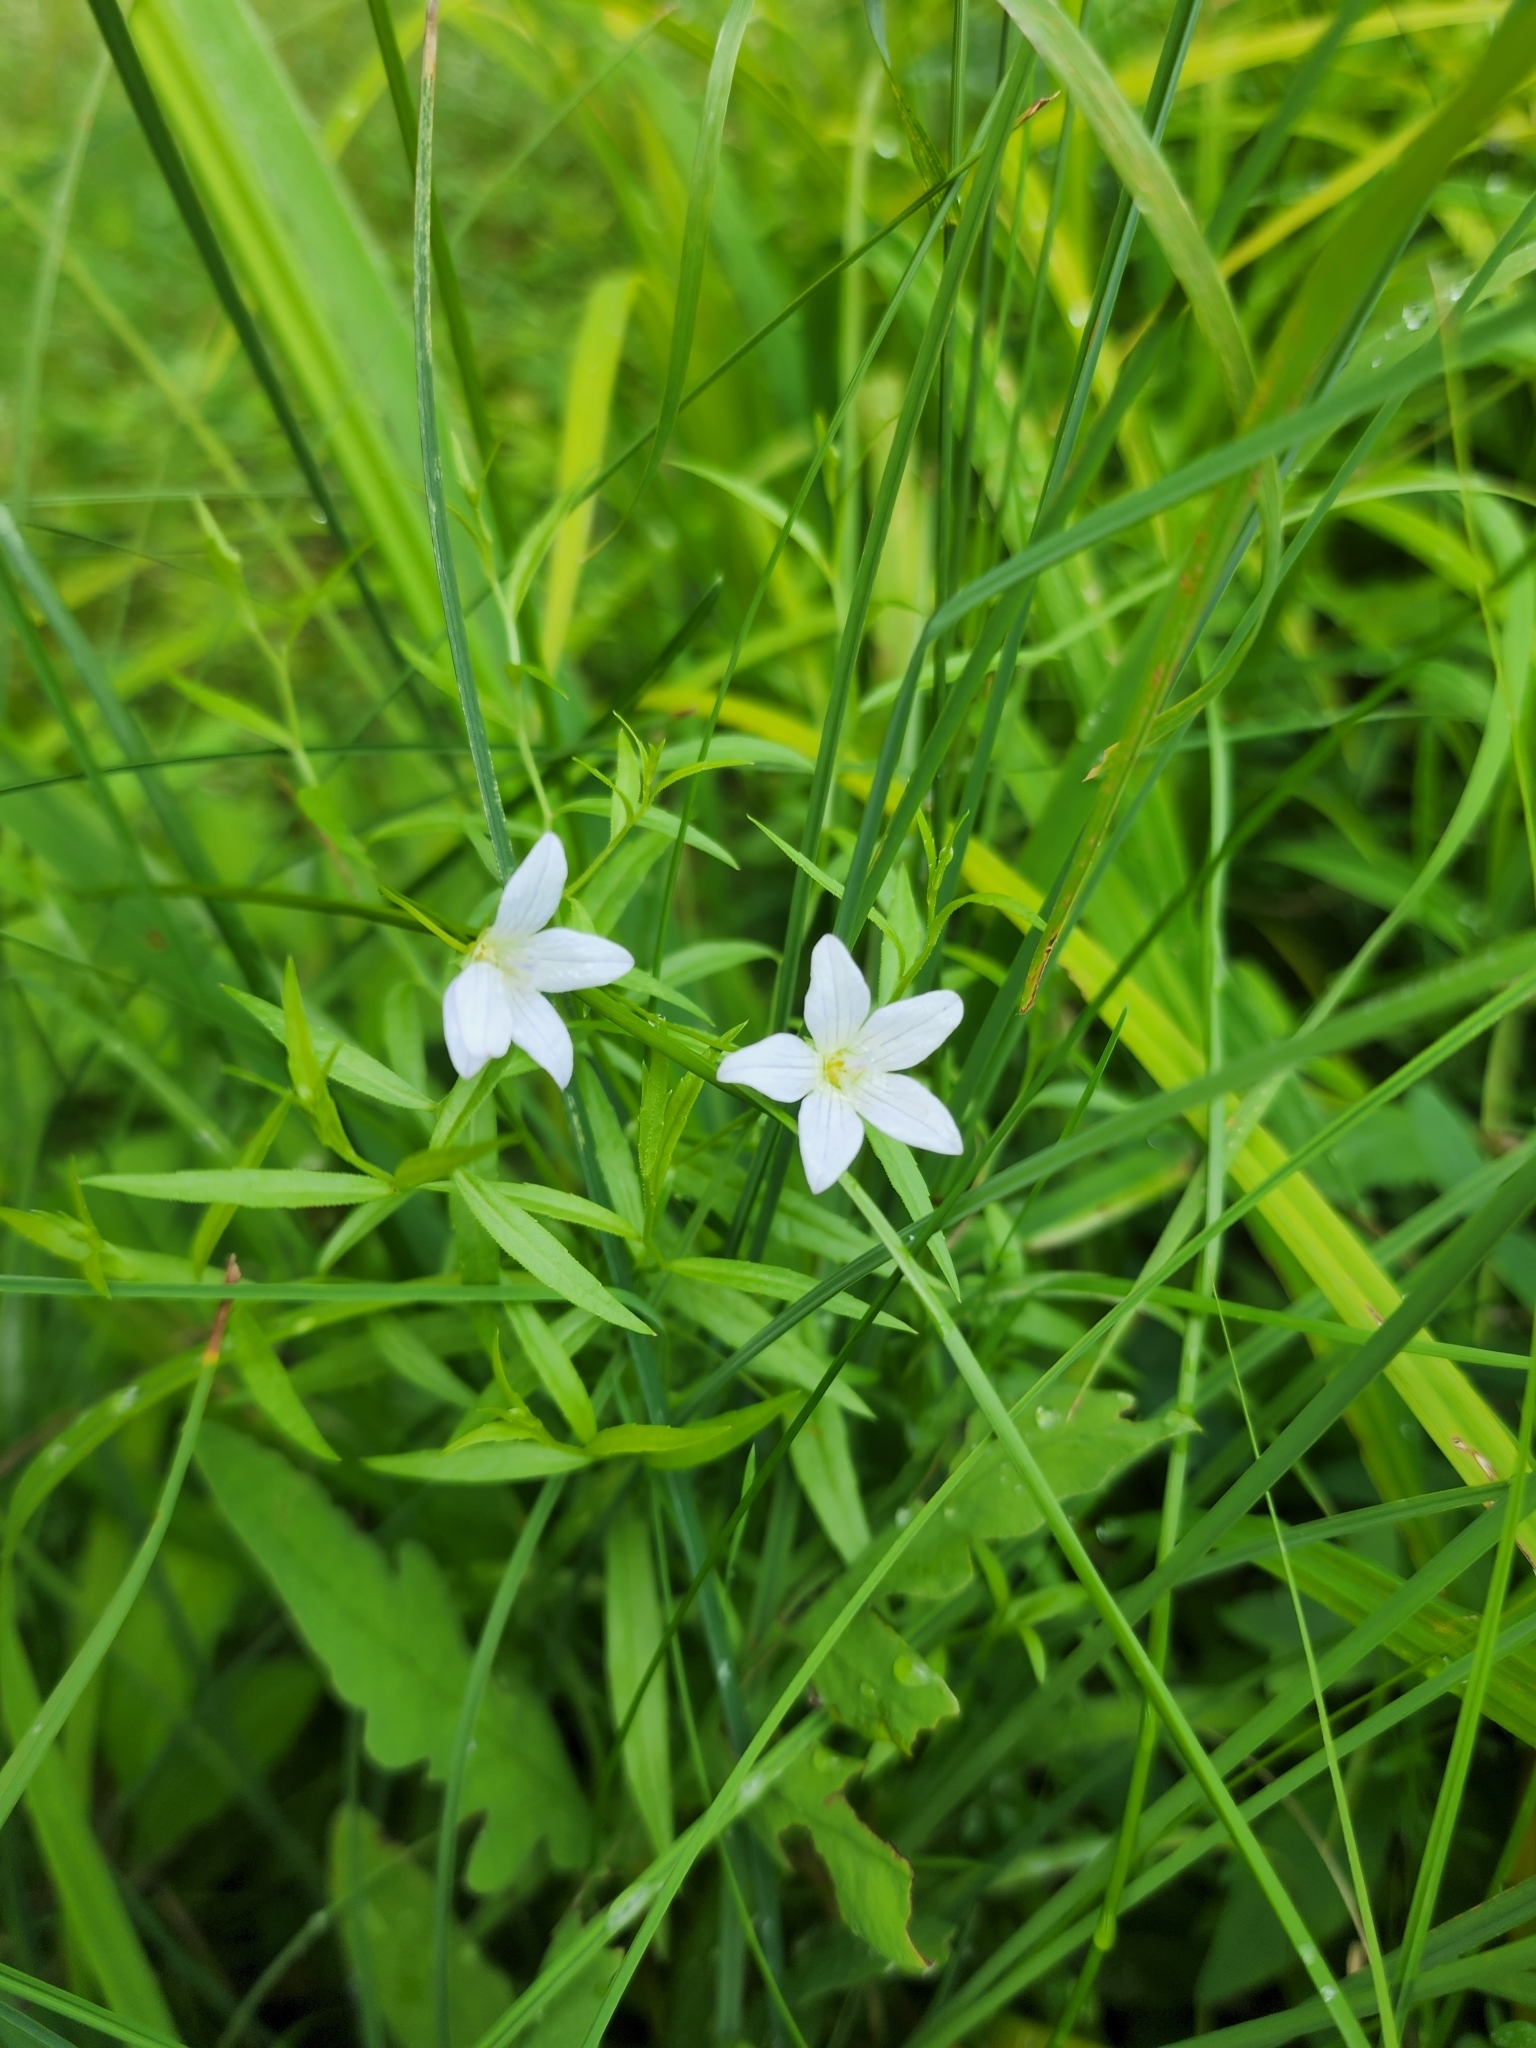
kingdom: Plantae
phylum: Tracheophyta
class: Magnoliopsida
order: Asterales
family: Campanulaceae
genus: Palustricodon
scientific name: Palustricodon aparinoides
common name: Bedstraw bellflower
